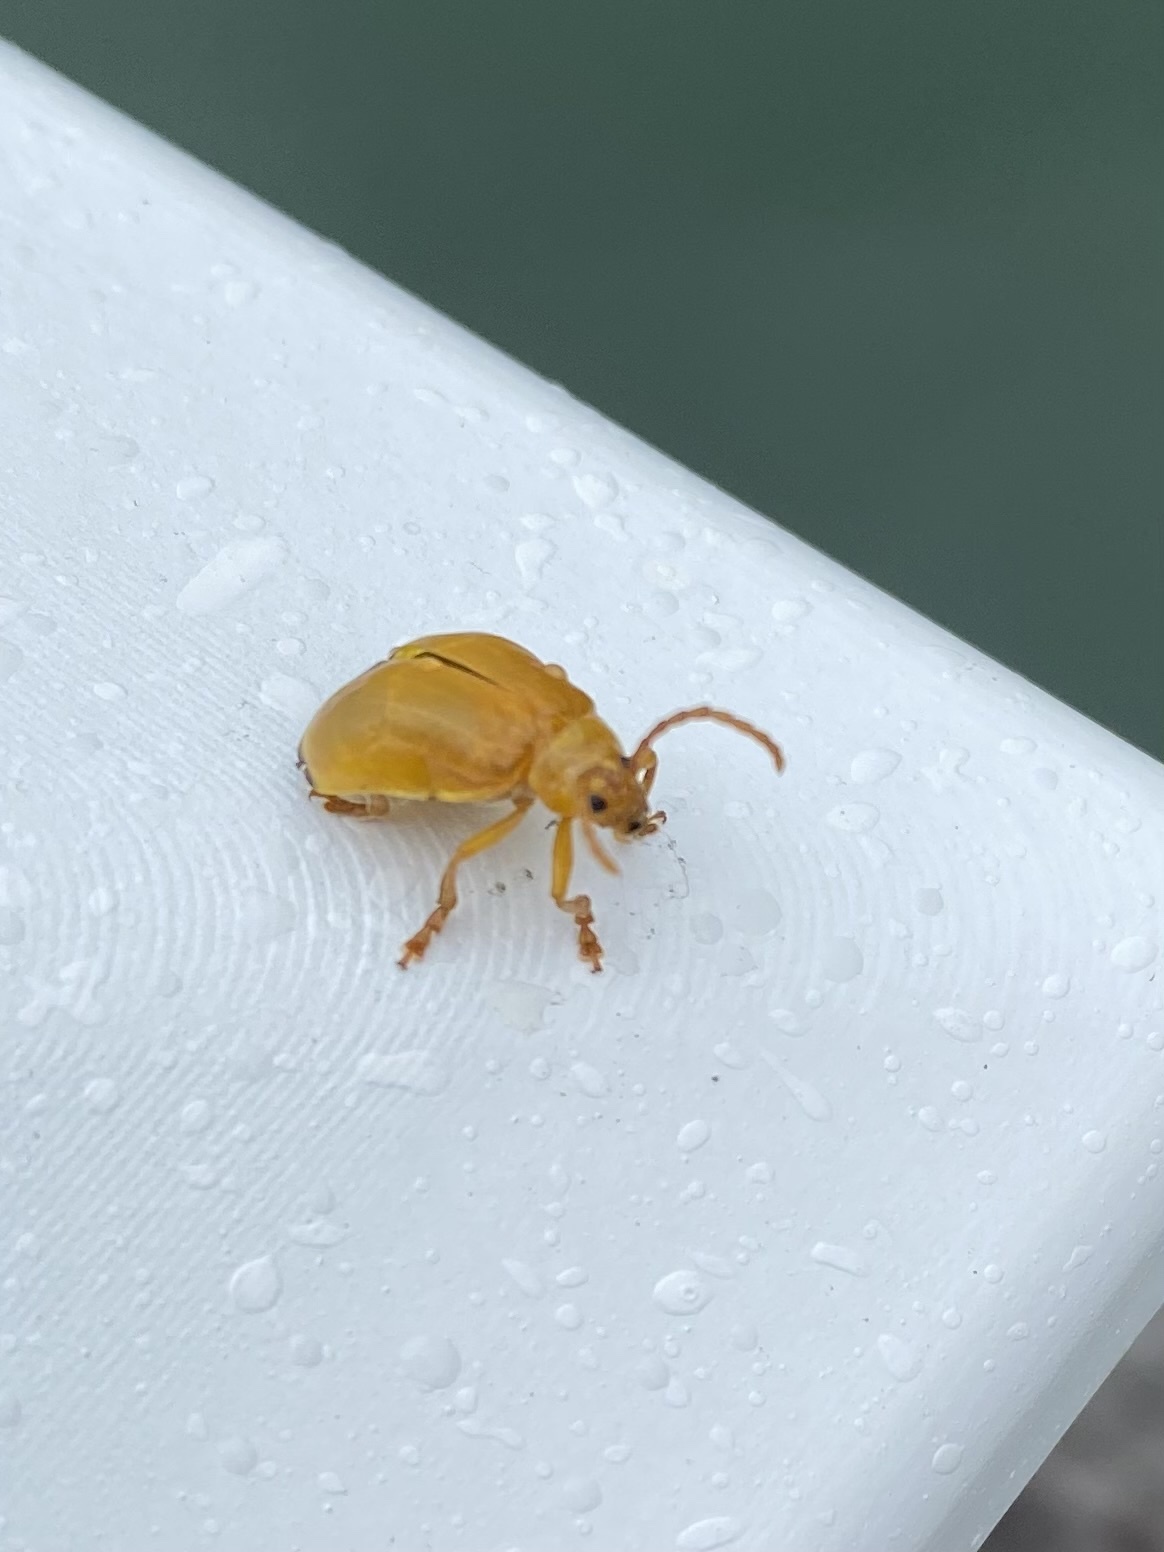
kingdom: Animalia
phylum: Arthropoda
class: Insecta
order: Coleoptera
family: Chrysomelidae
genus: Monocesta
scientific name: Monocesta coryli
